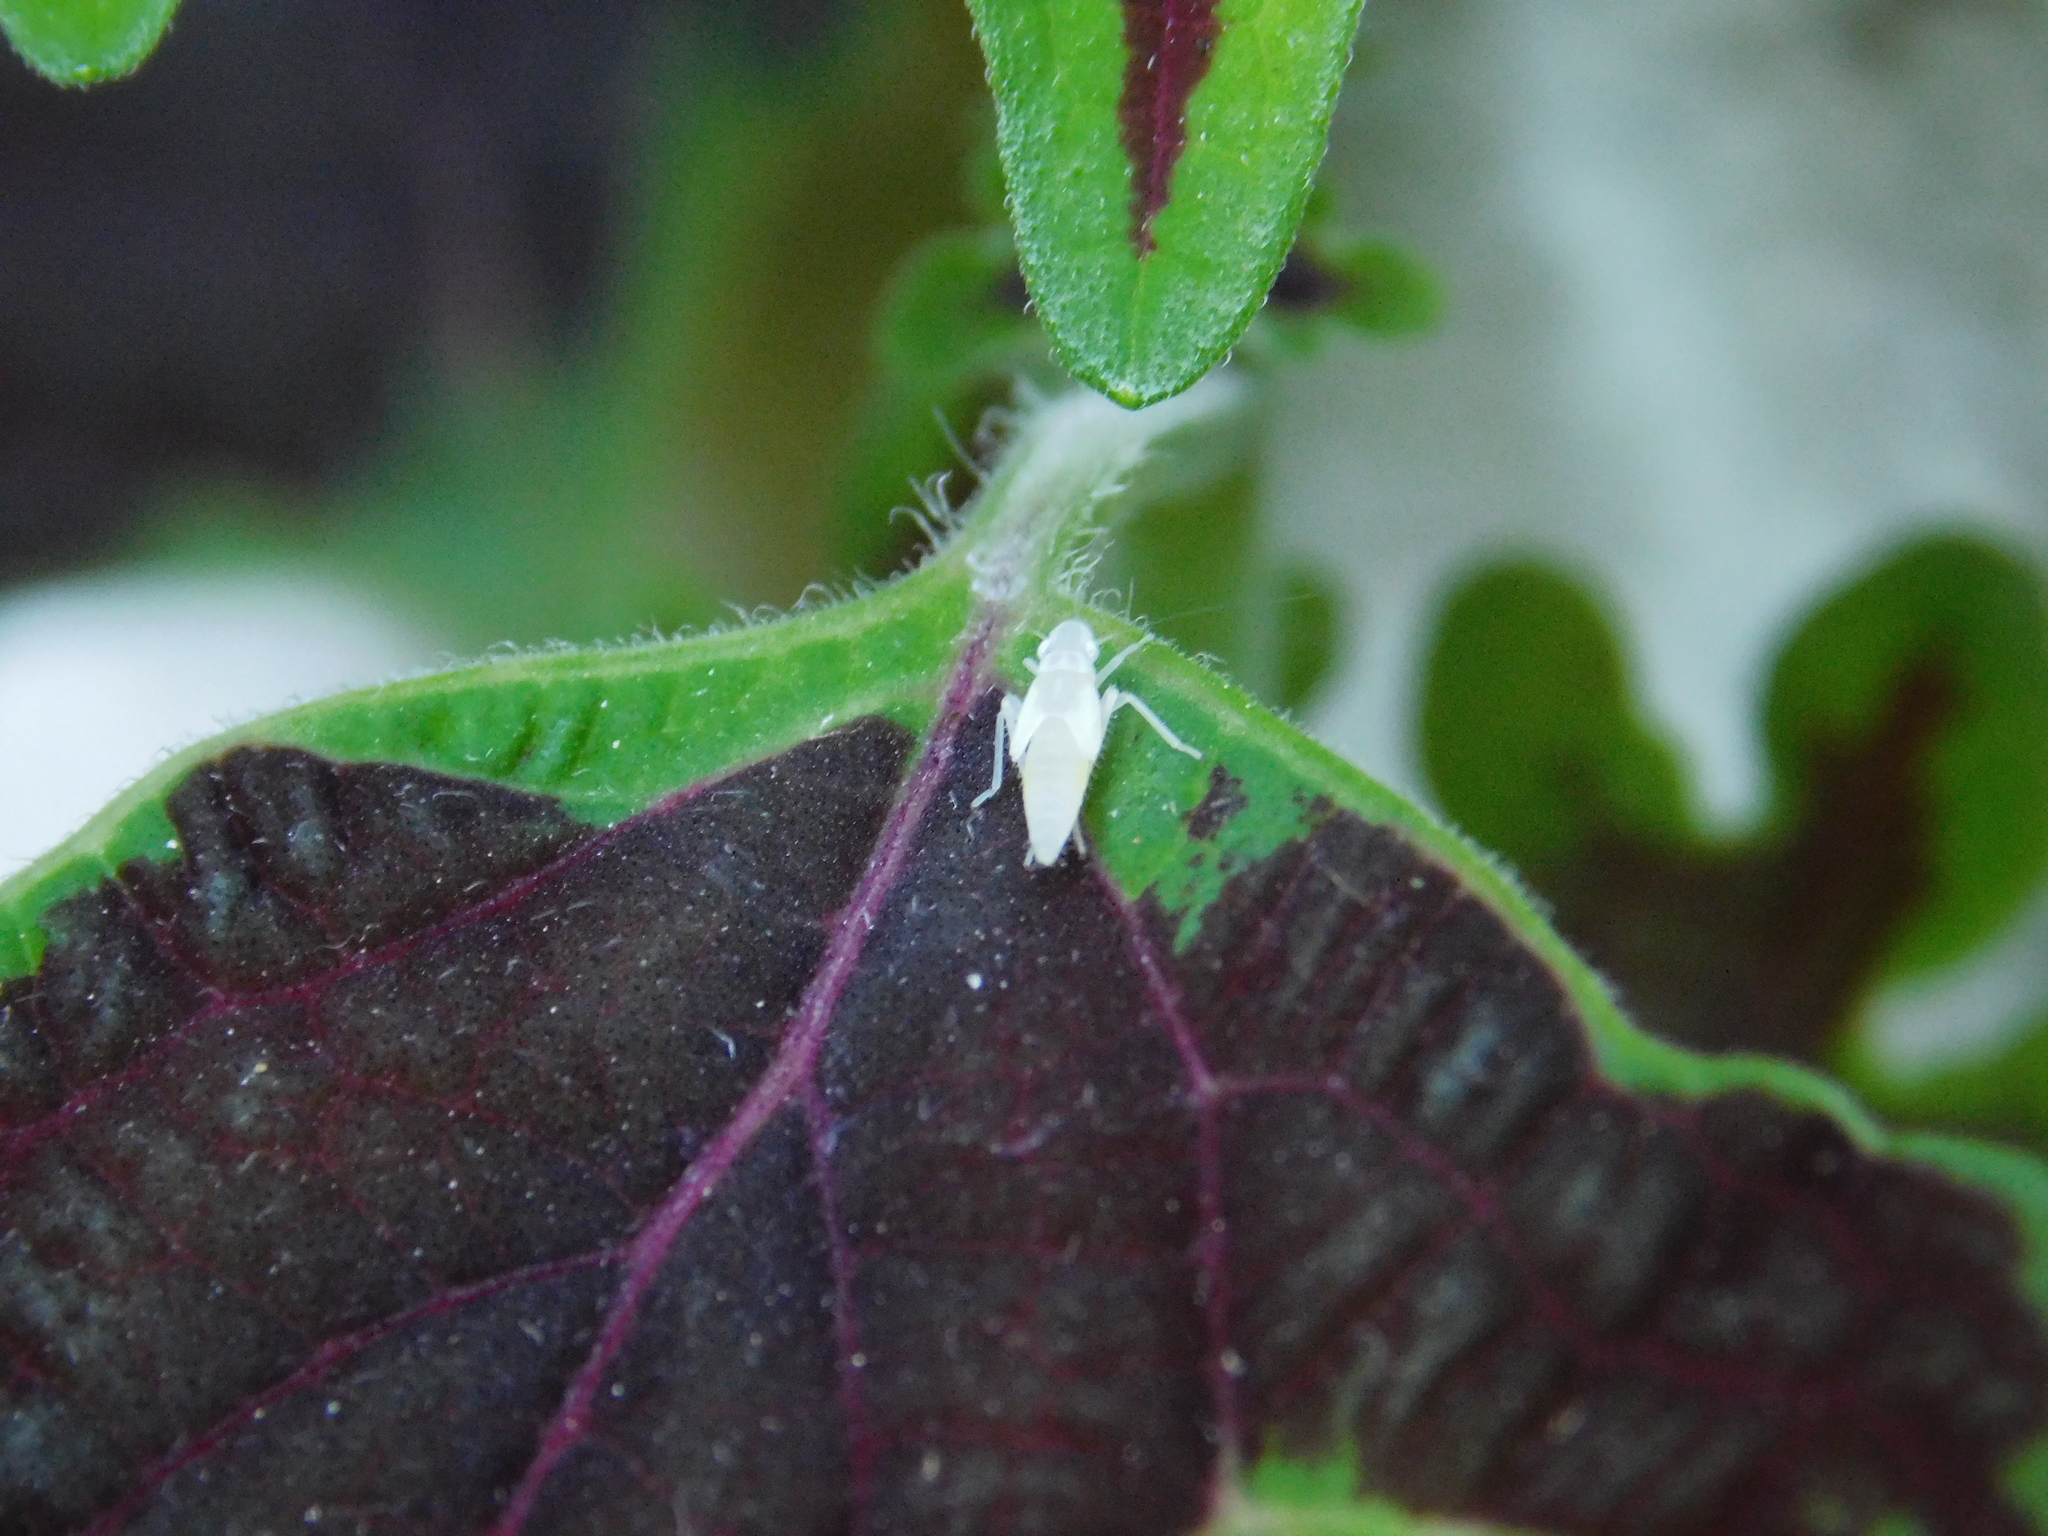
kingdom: Animalia
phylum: Arthropoda
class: Insecta
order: Hemiptera
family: Cicadellidae
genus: Sibovia
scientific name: Sibovia sagata
